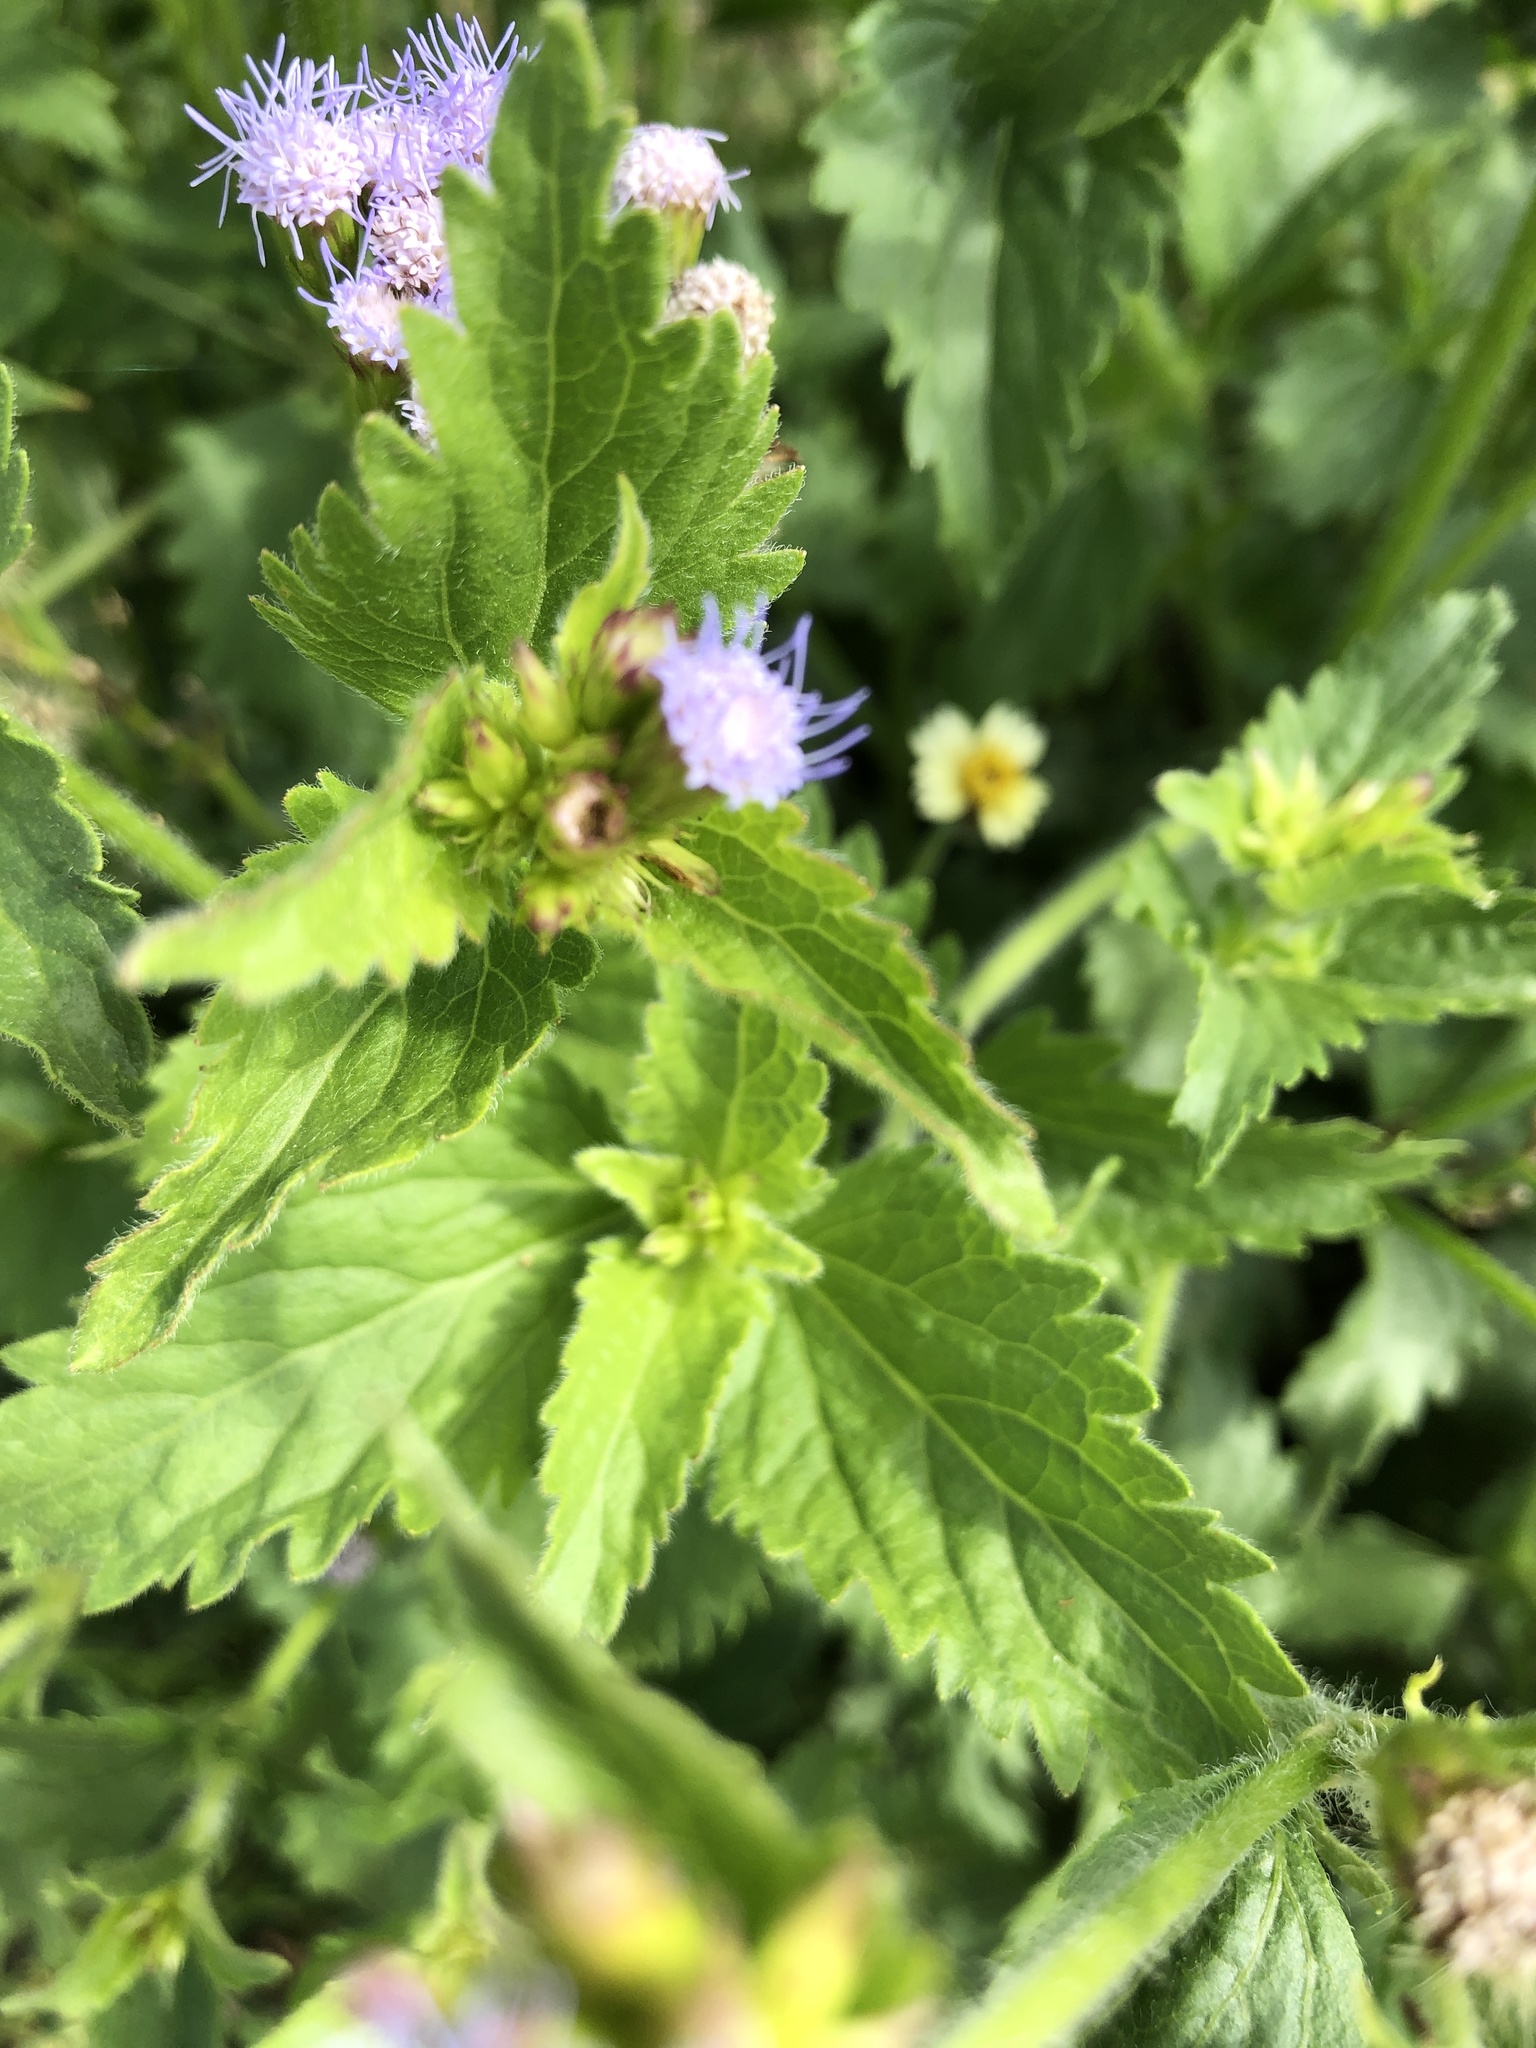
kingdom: Plantae
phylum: Tracheophyta
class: Magnoliopsida
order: Asterales
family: Asteraceae
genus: Praxelis
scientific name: Praxelis clematidea
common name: Praxelis
